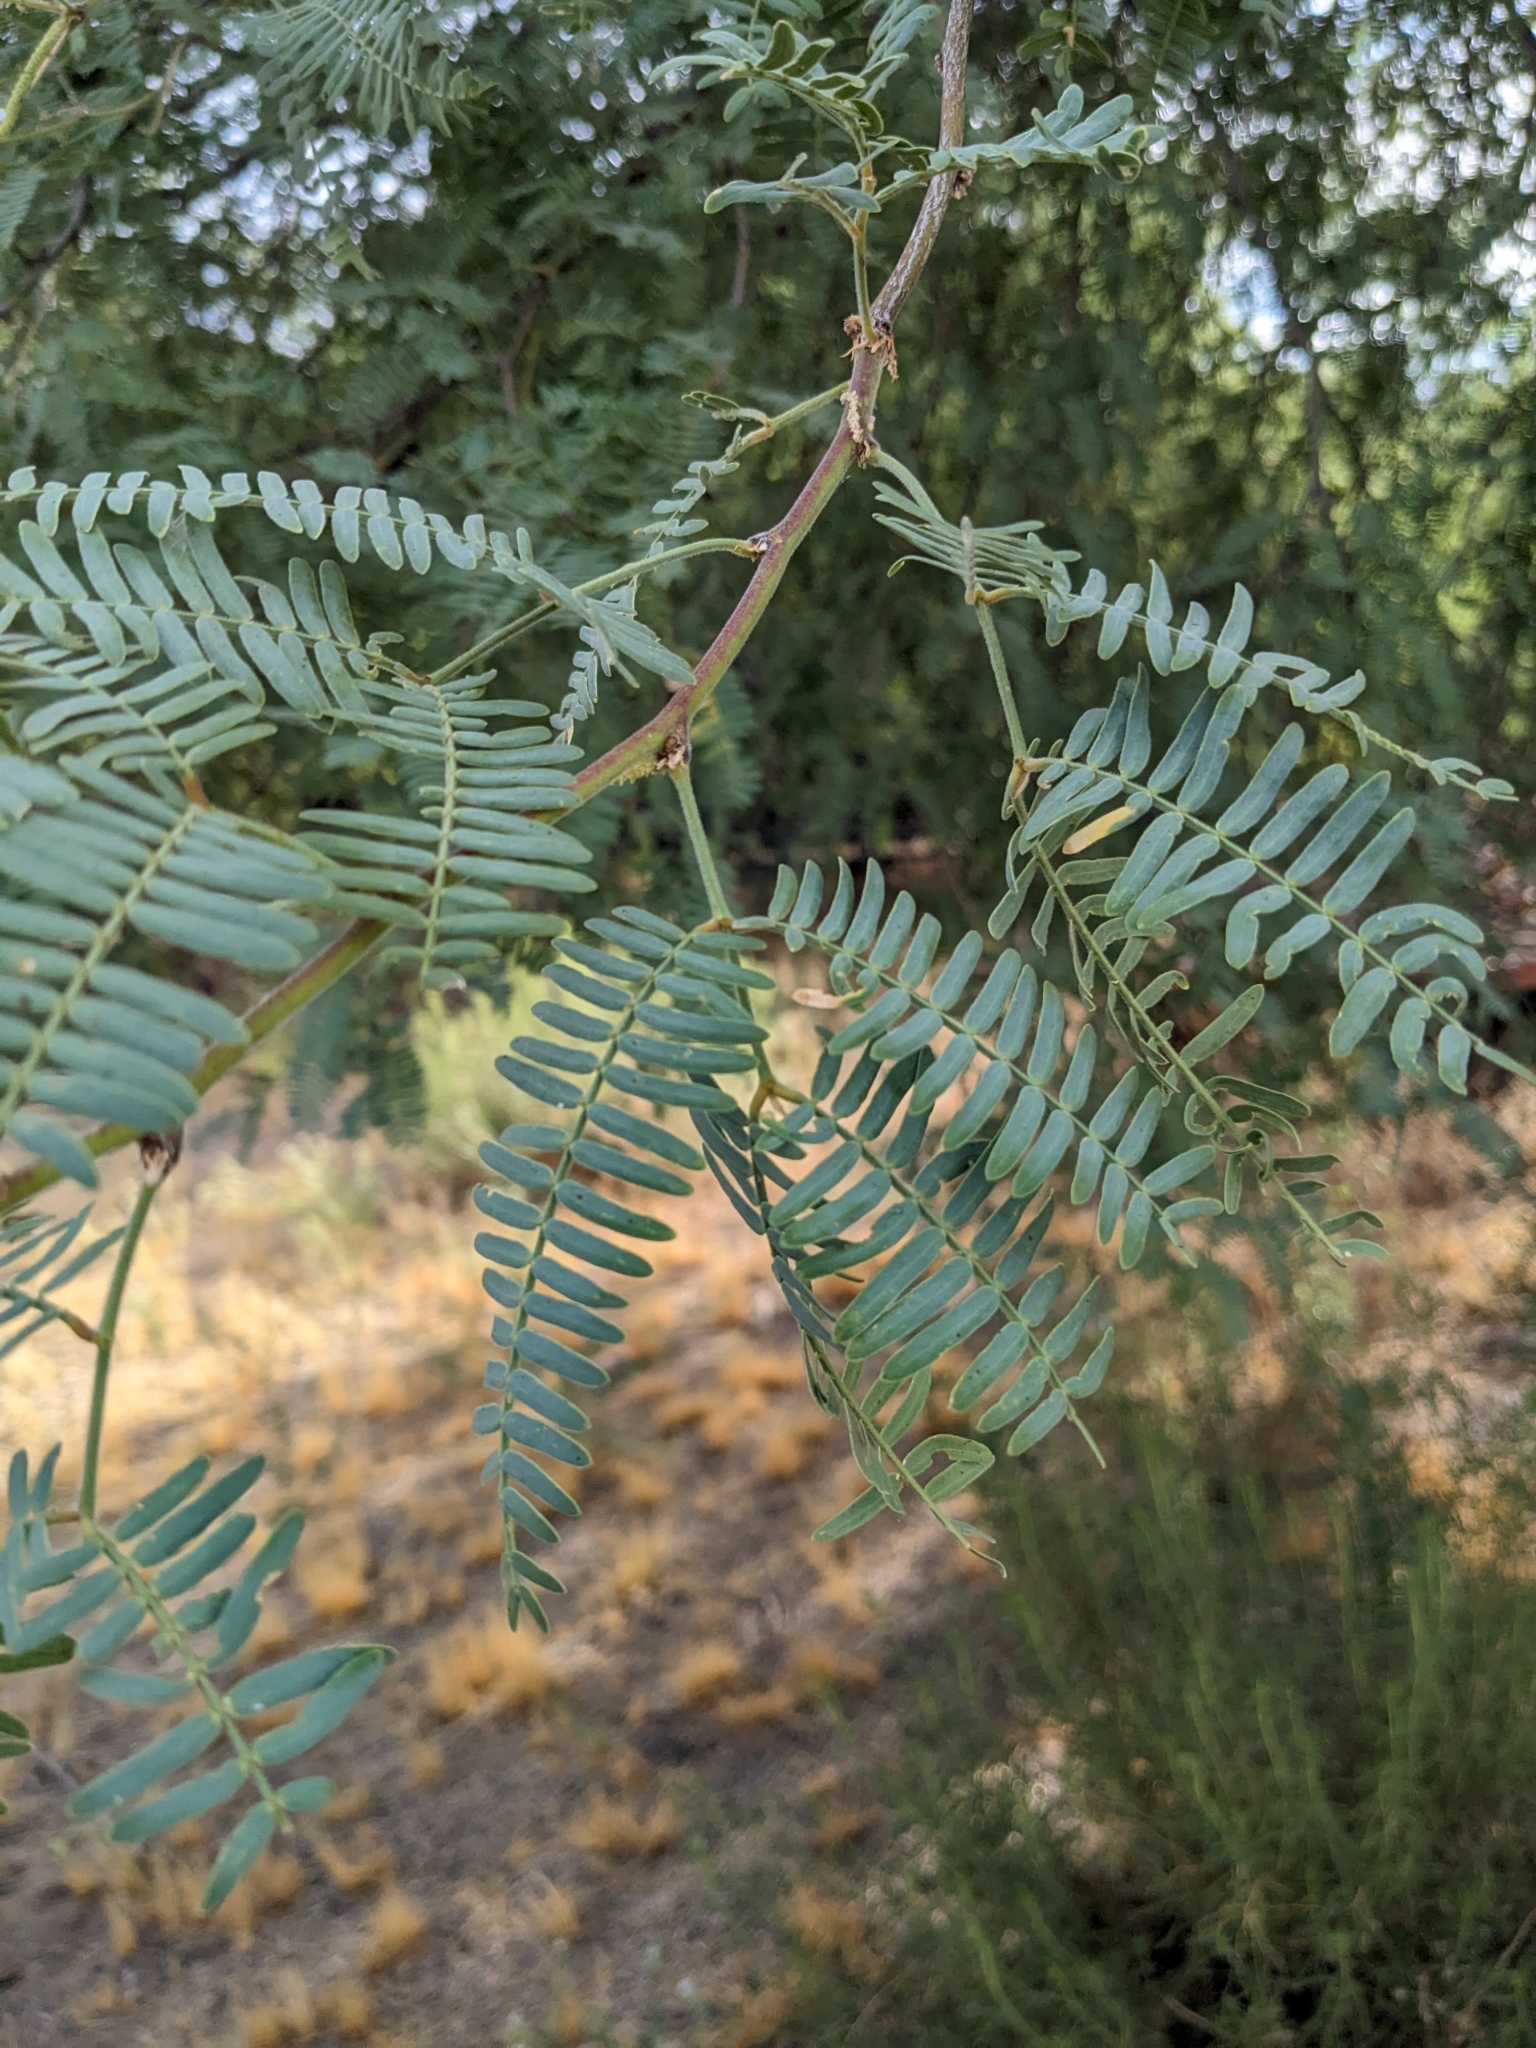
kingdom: Plantae
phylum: Tracheophyta
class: Magnoliopsida
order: Fabales
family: Fabaceae
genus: Prosopis
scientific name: Prosopis velutina
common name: Velvet mesquite
